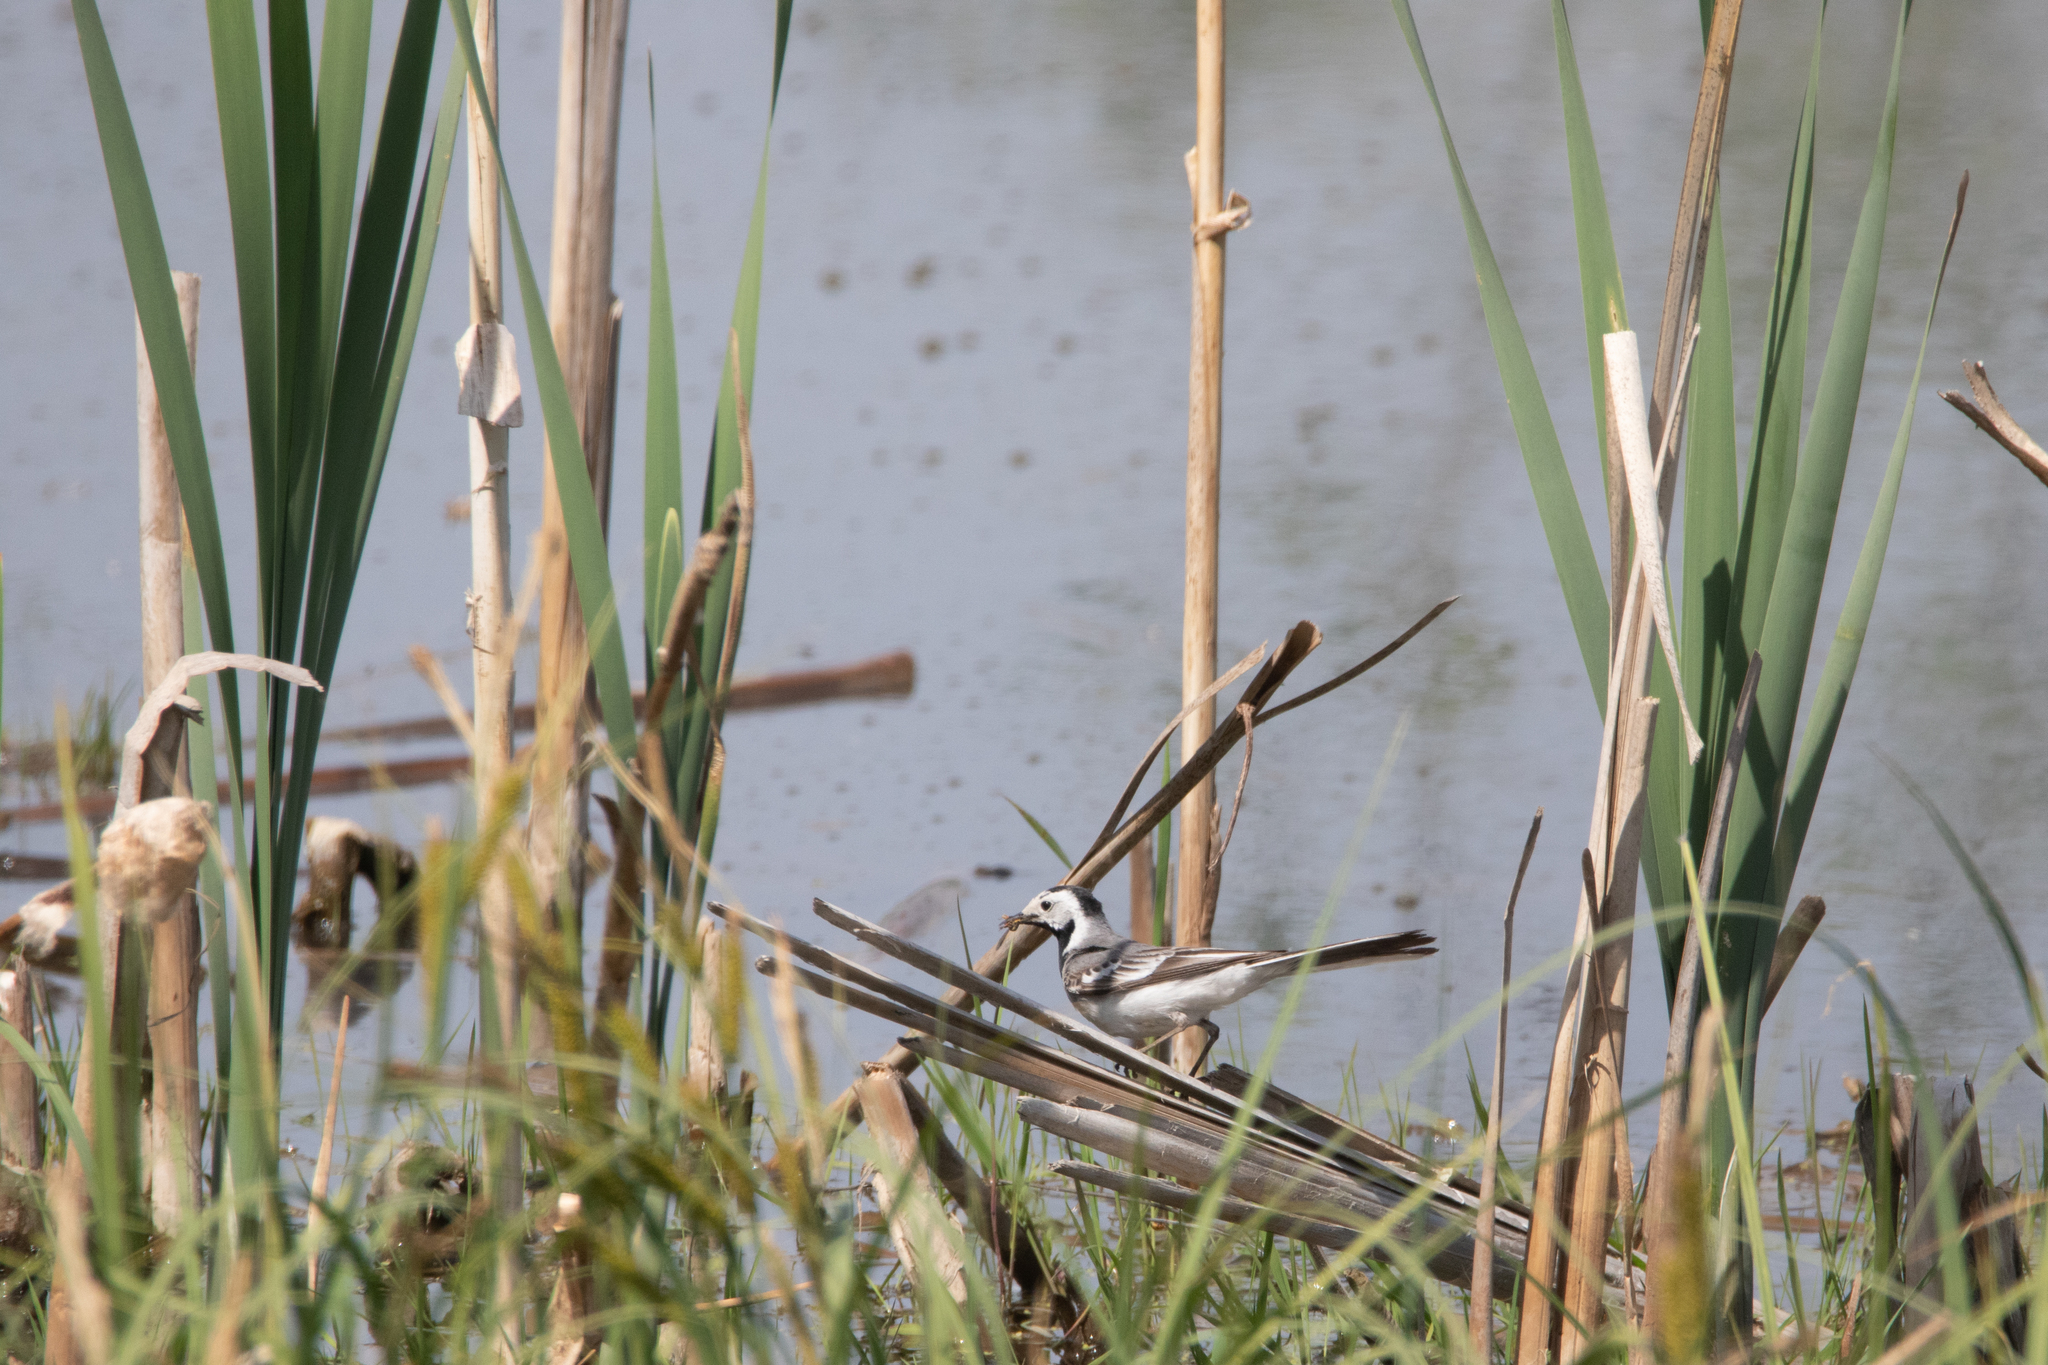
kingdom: Animalia
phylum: Chordata
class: Aves
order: Passeriformes
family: Motacillidae
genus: Motacilla
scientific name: Motacilla alba
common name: White wagtail
